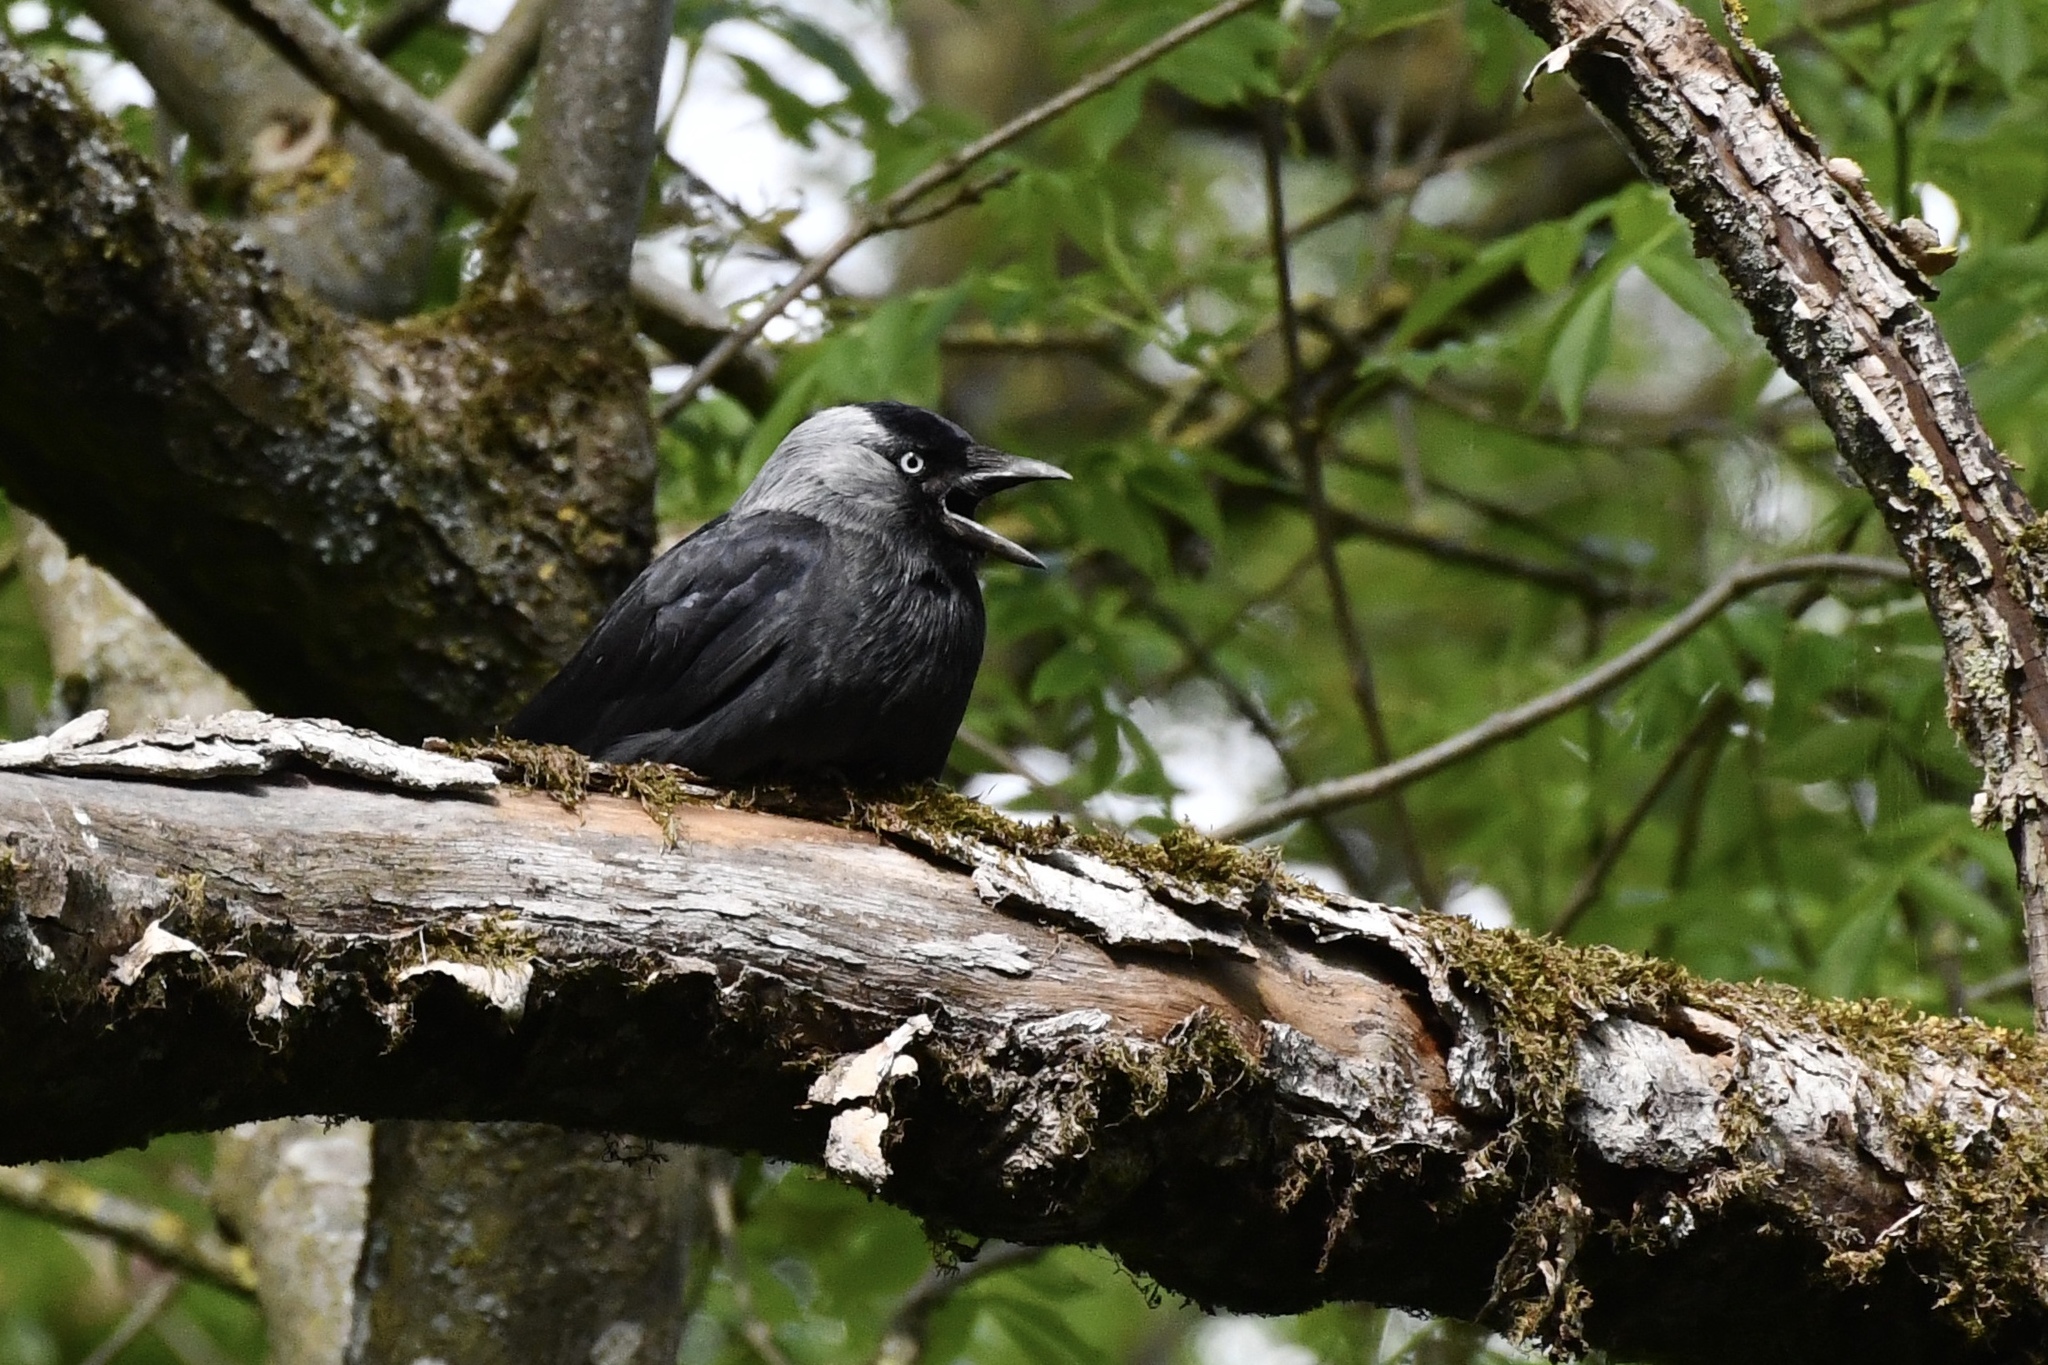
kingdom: Animalia
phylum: Chordata
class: Aves
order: Passeriformes
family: Corvidae
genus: Coloeus
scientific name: Coloeus monedula
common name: Western jackdaw
